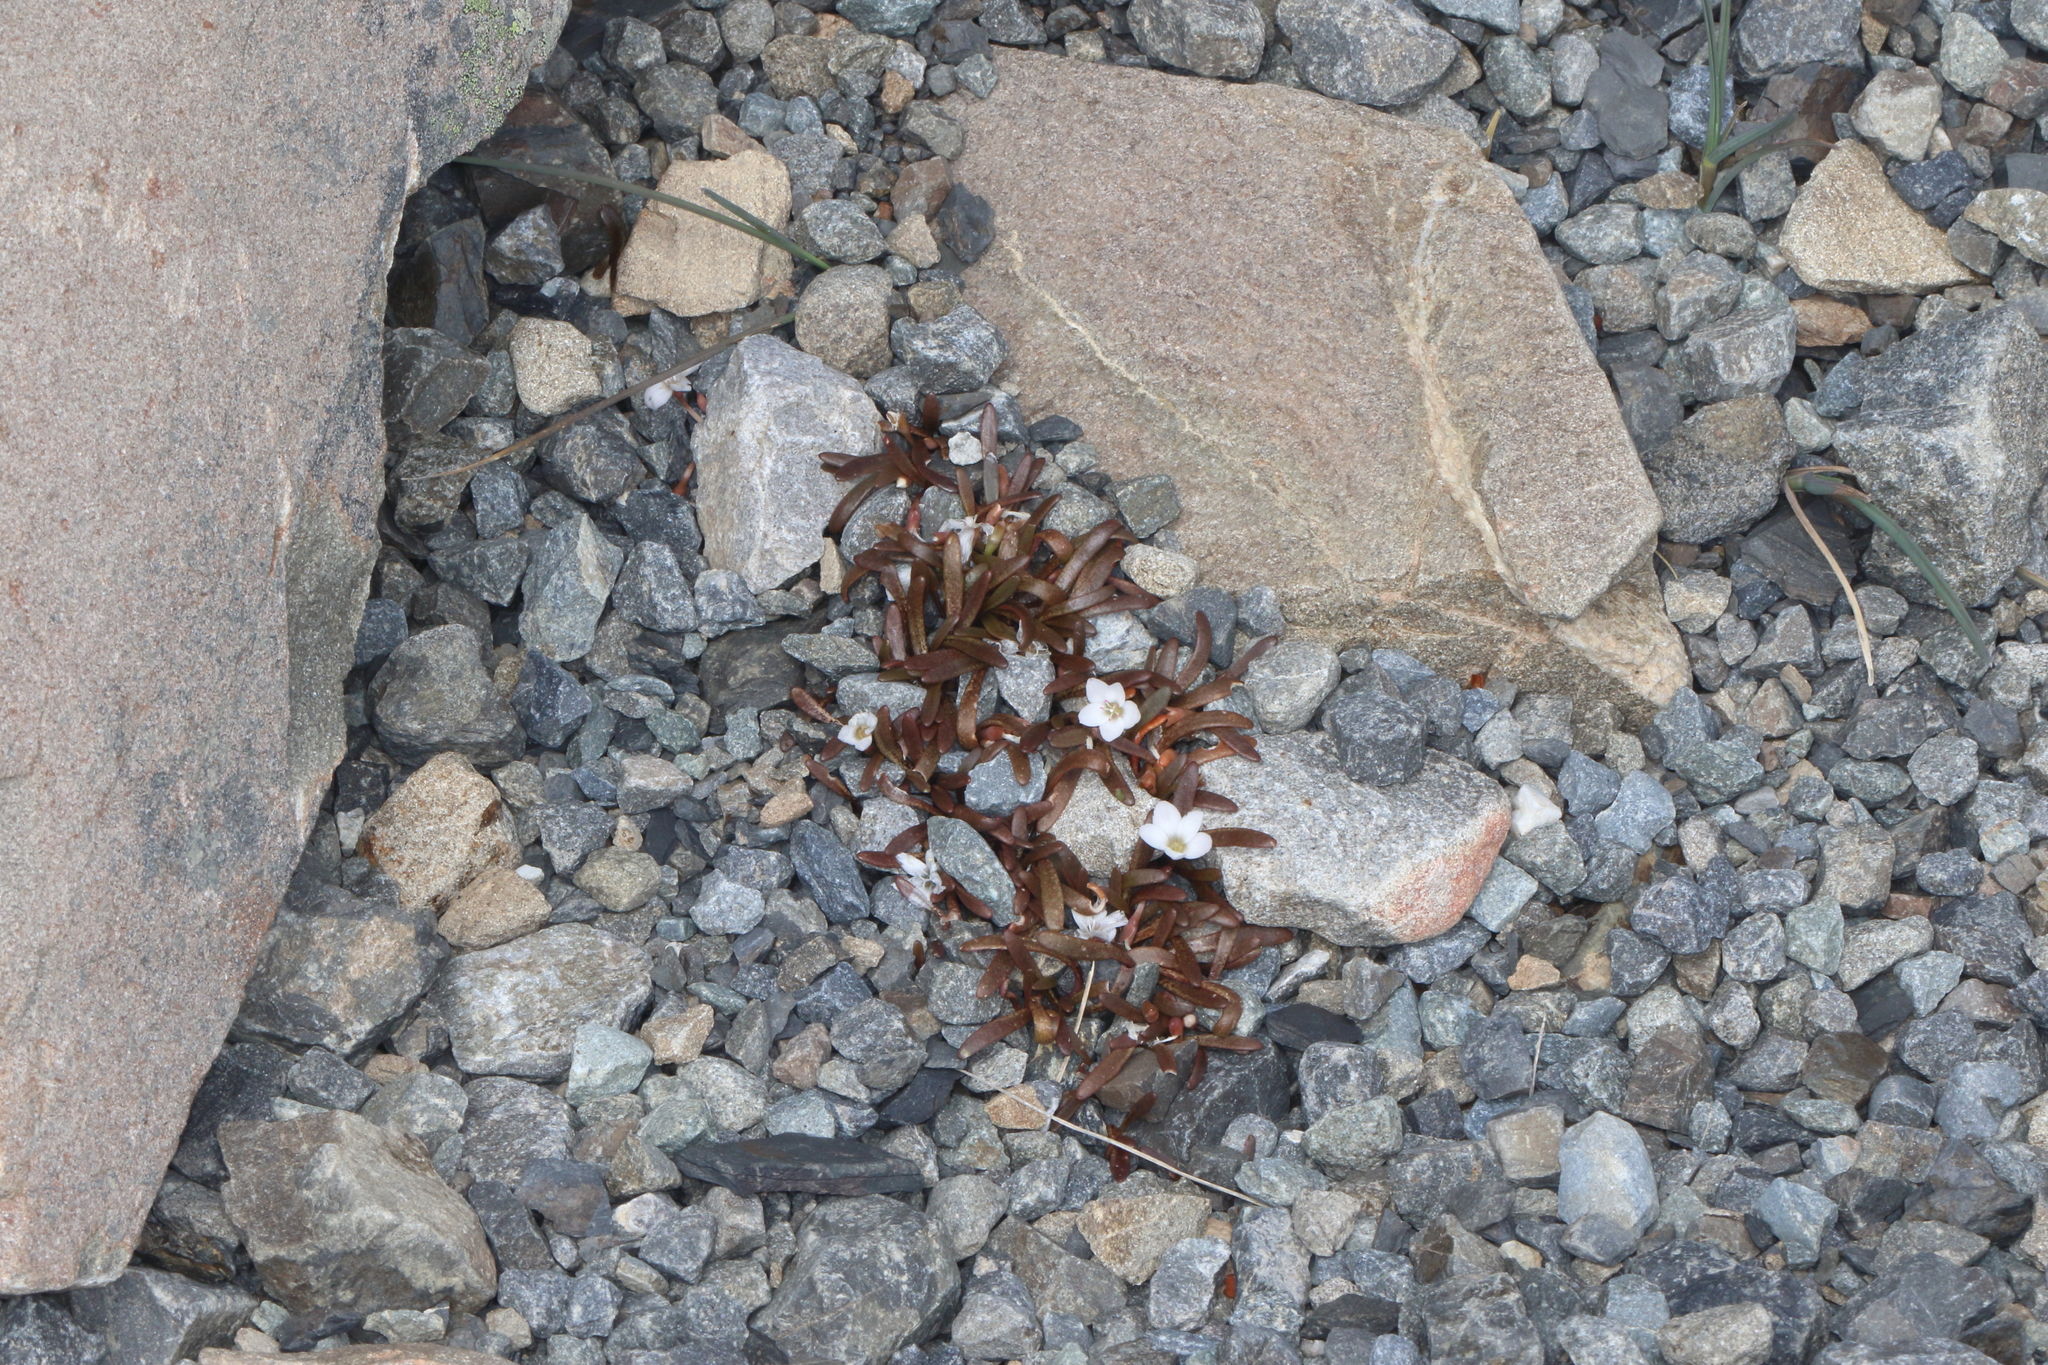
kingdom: Plantae
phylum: Tracheophyta
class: Magnoliopsida
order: Caryophyllales
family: Montiaceae
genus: Montia
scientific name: Montia erythrophylla
